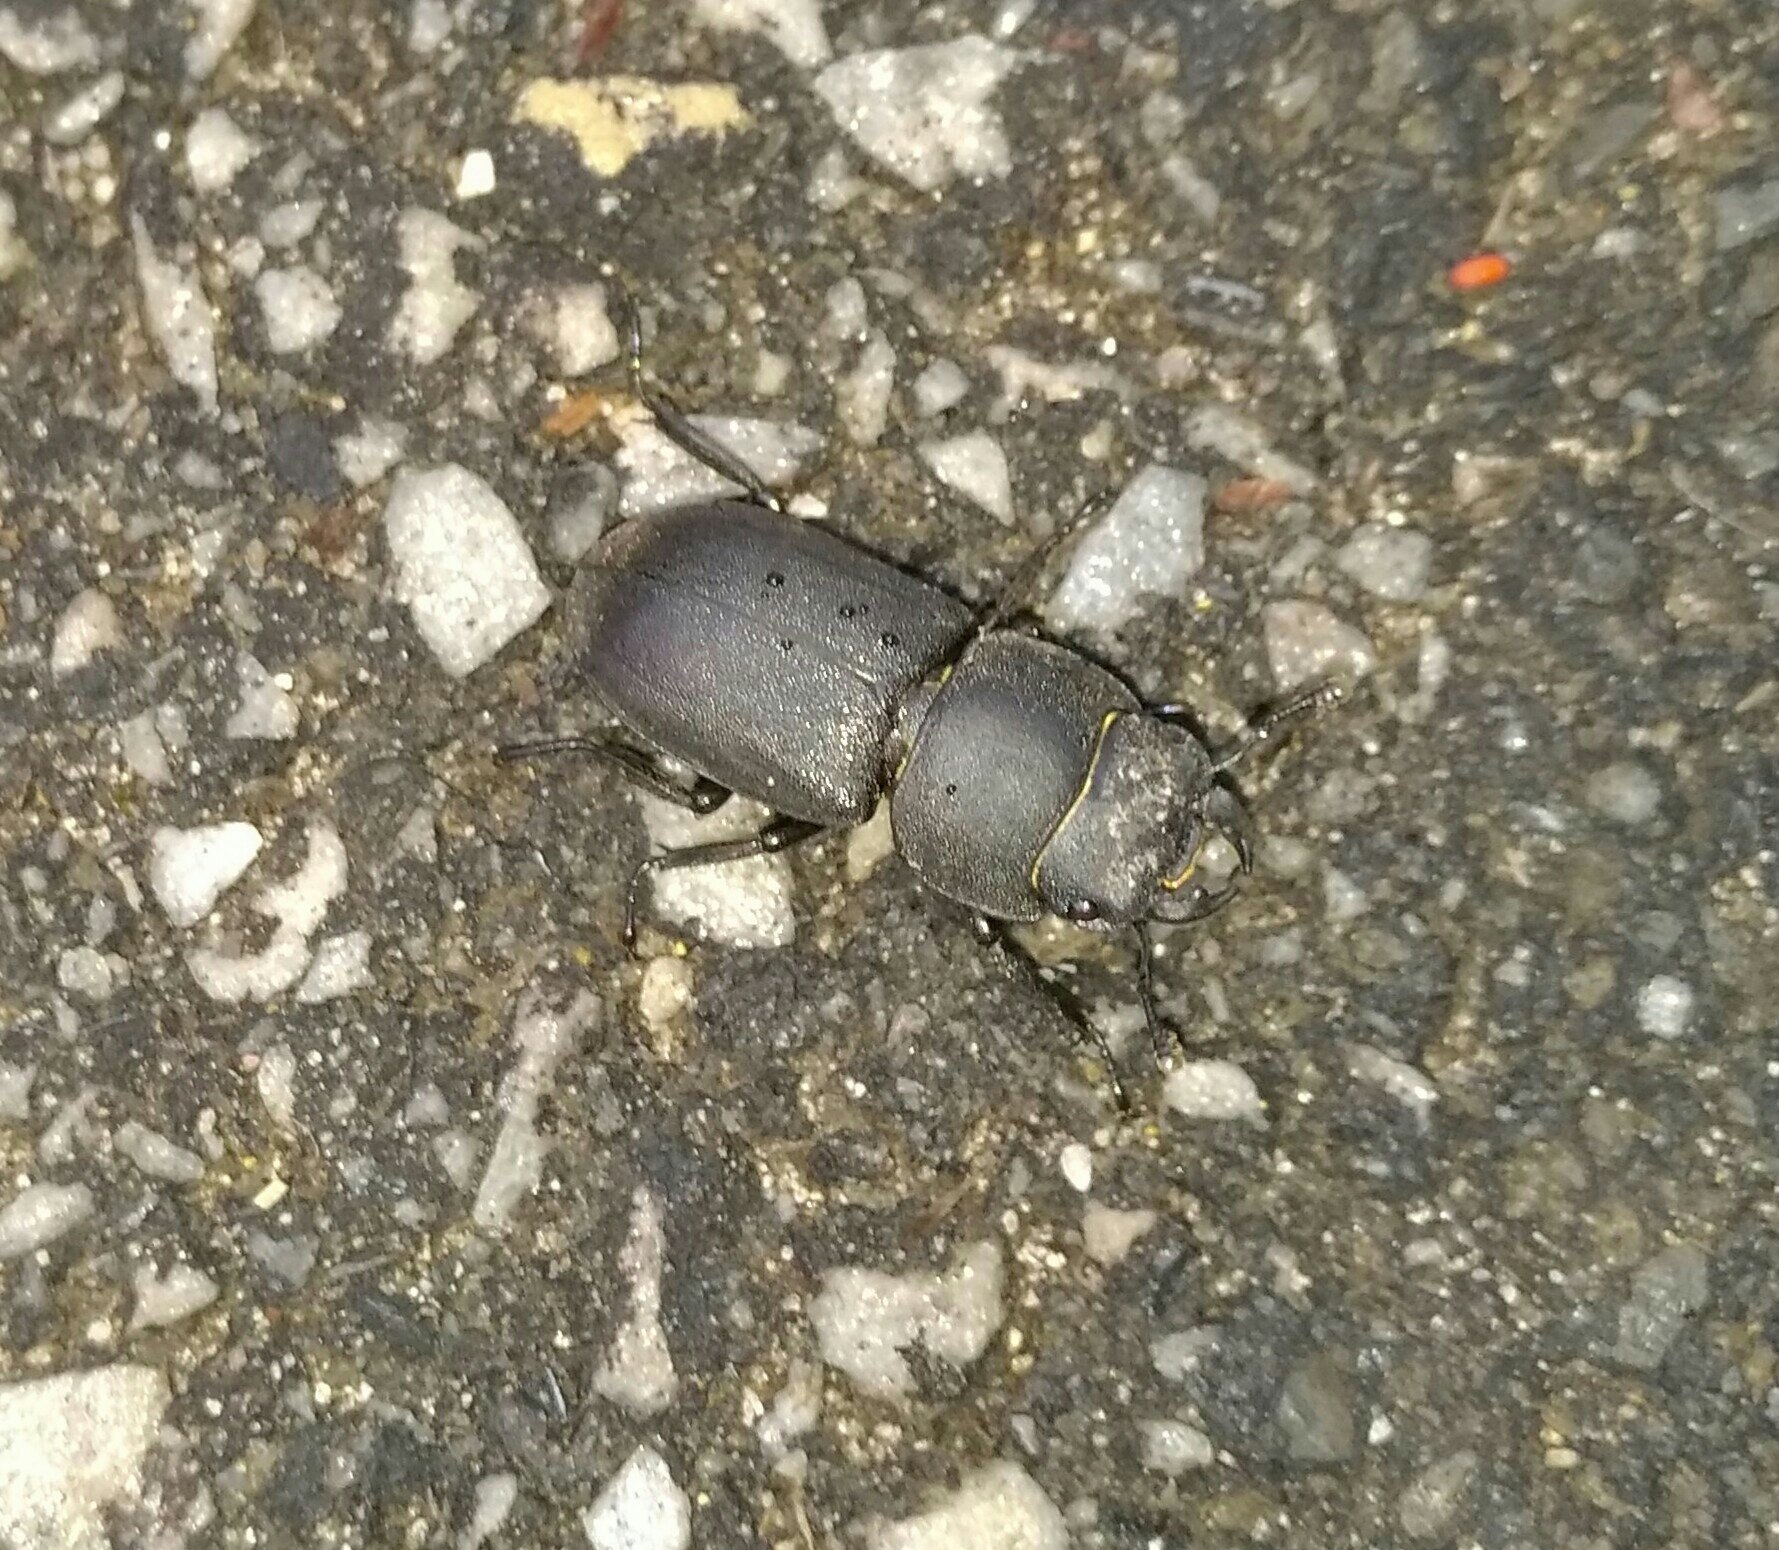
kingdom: Animalia
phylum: Arthropoda
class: Insecta
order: Coleoptera
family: Lucanidae
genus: Dorcus
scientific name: Dorcus parallelipipedus
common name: Lesser stag beetle
